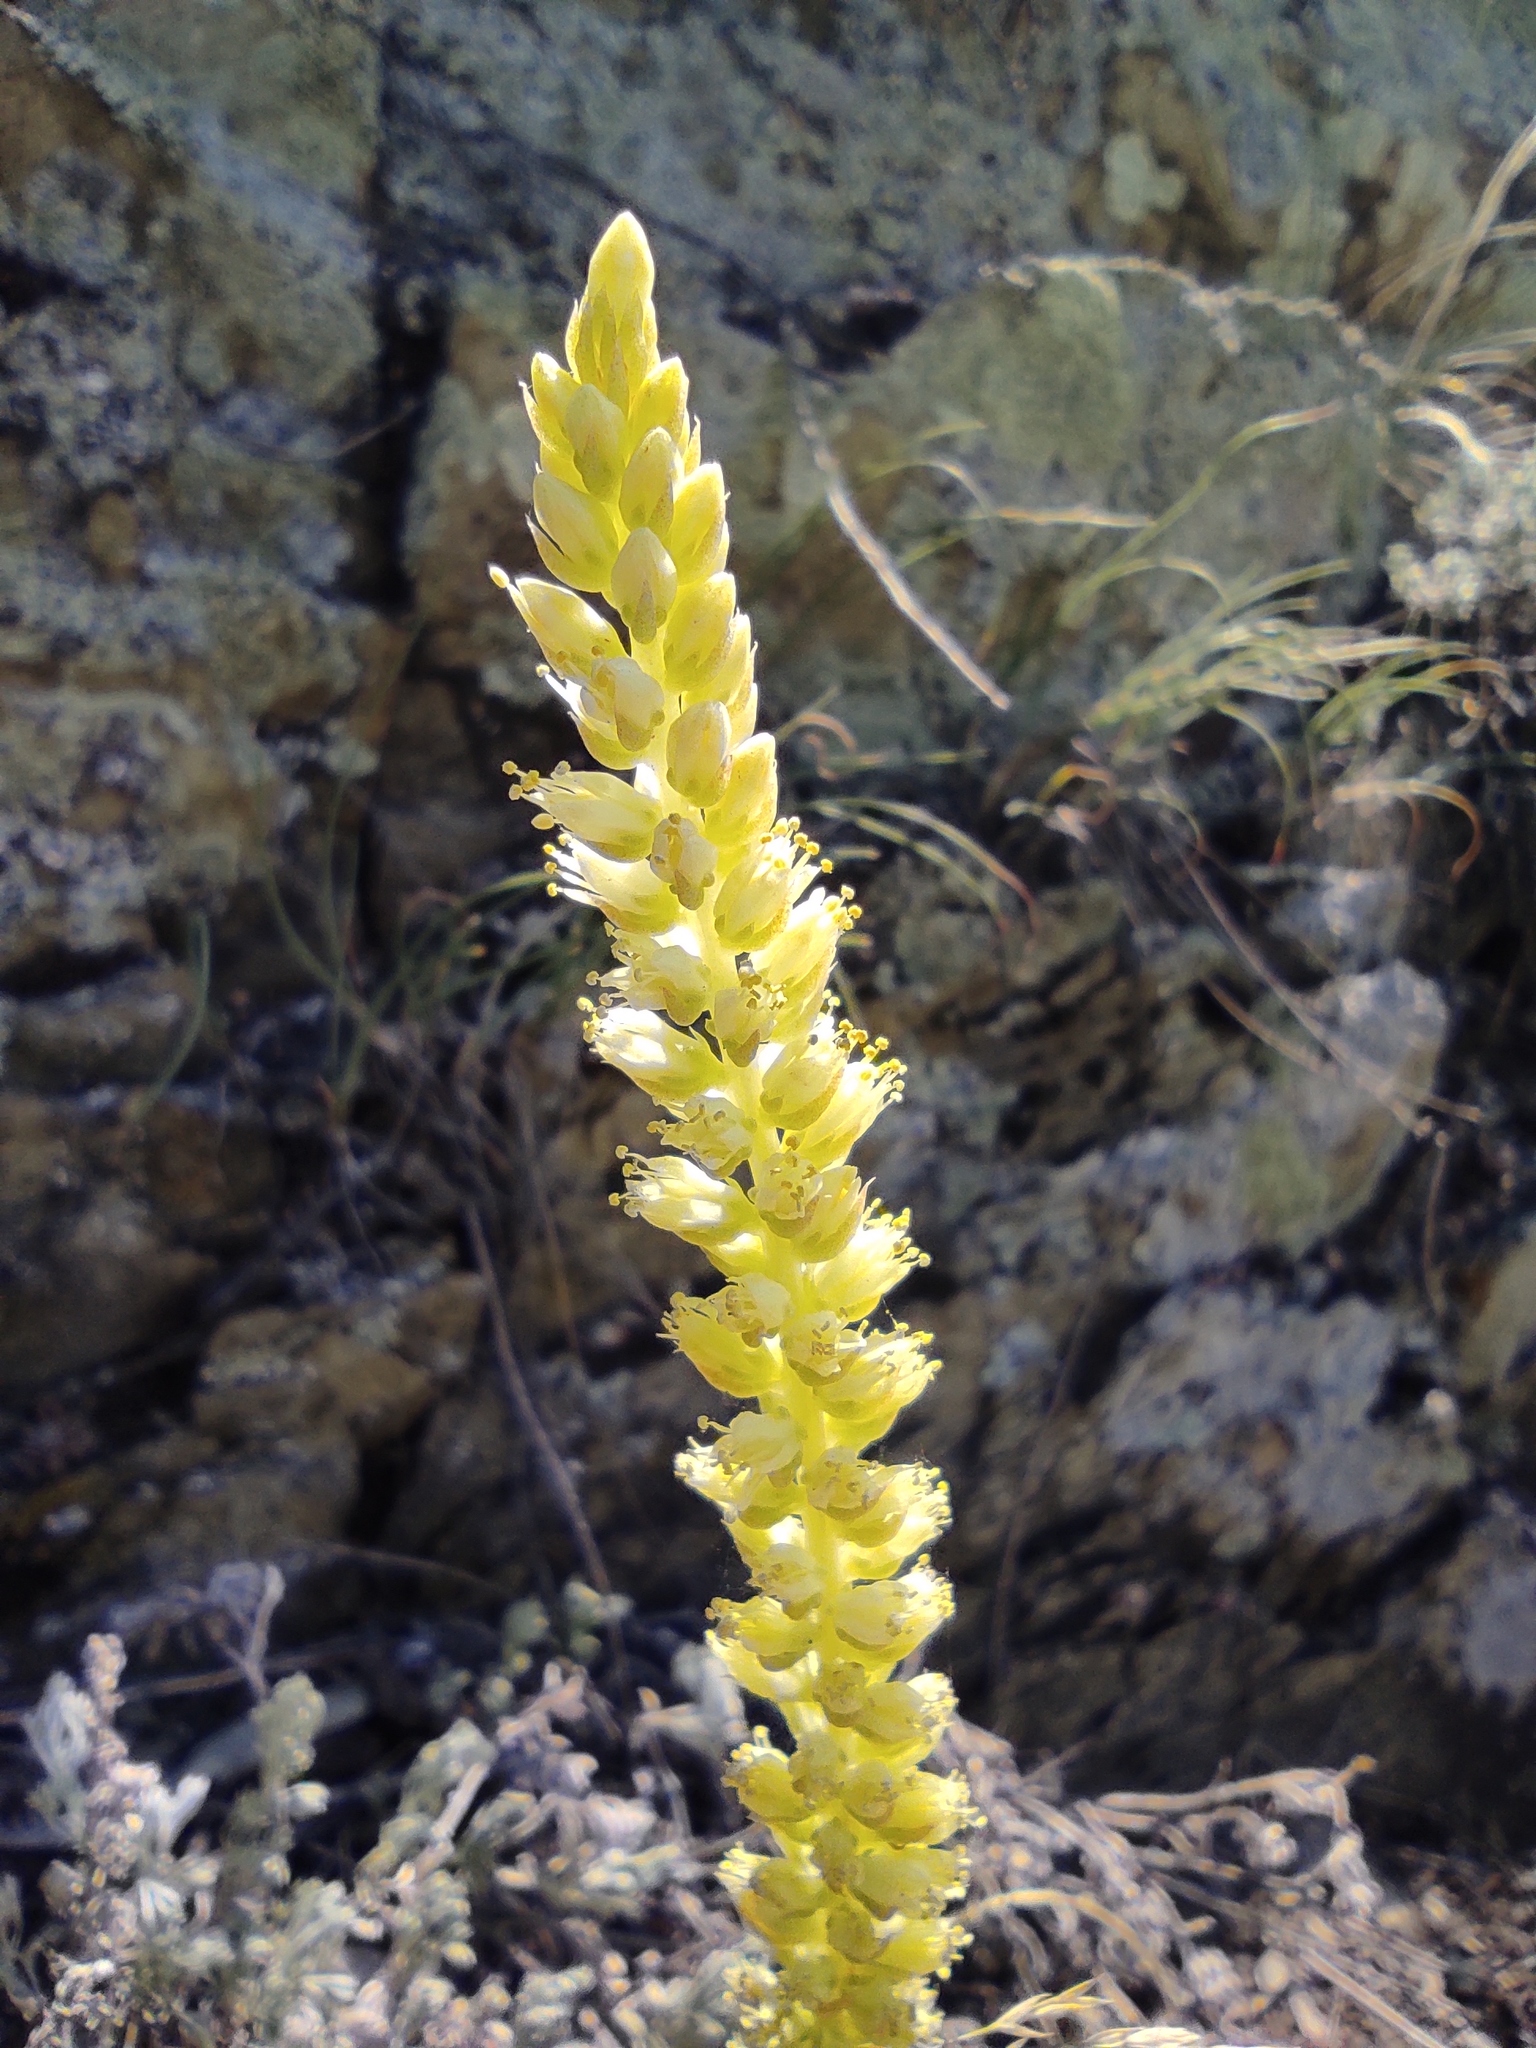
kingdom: Plantae
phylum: Tracheophyta
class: Magnoliopsida
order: Saxifragales
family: Crassulaceae
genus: Orostachys
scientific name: Orostachys spinosa
